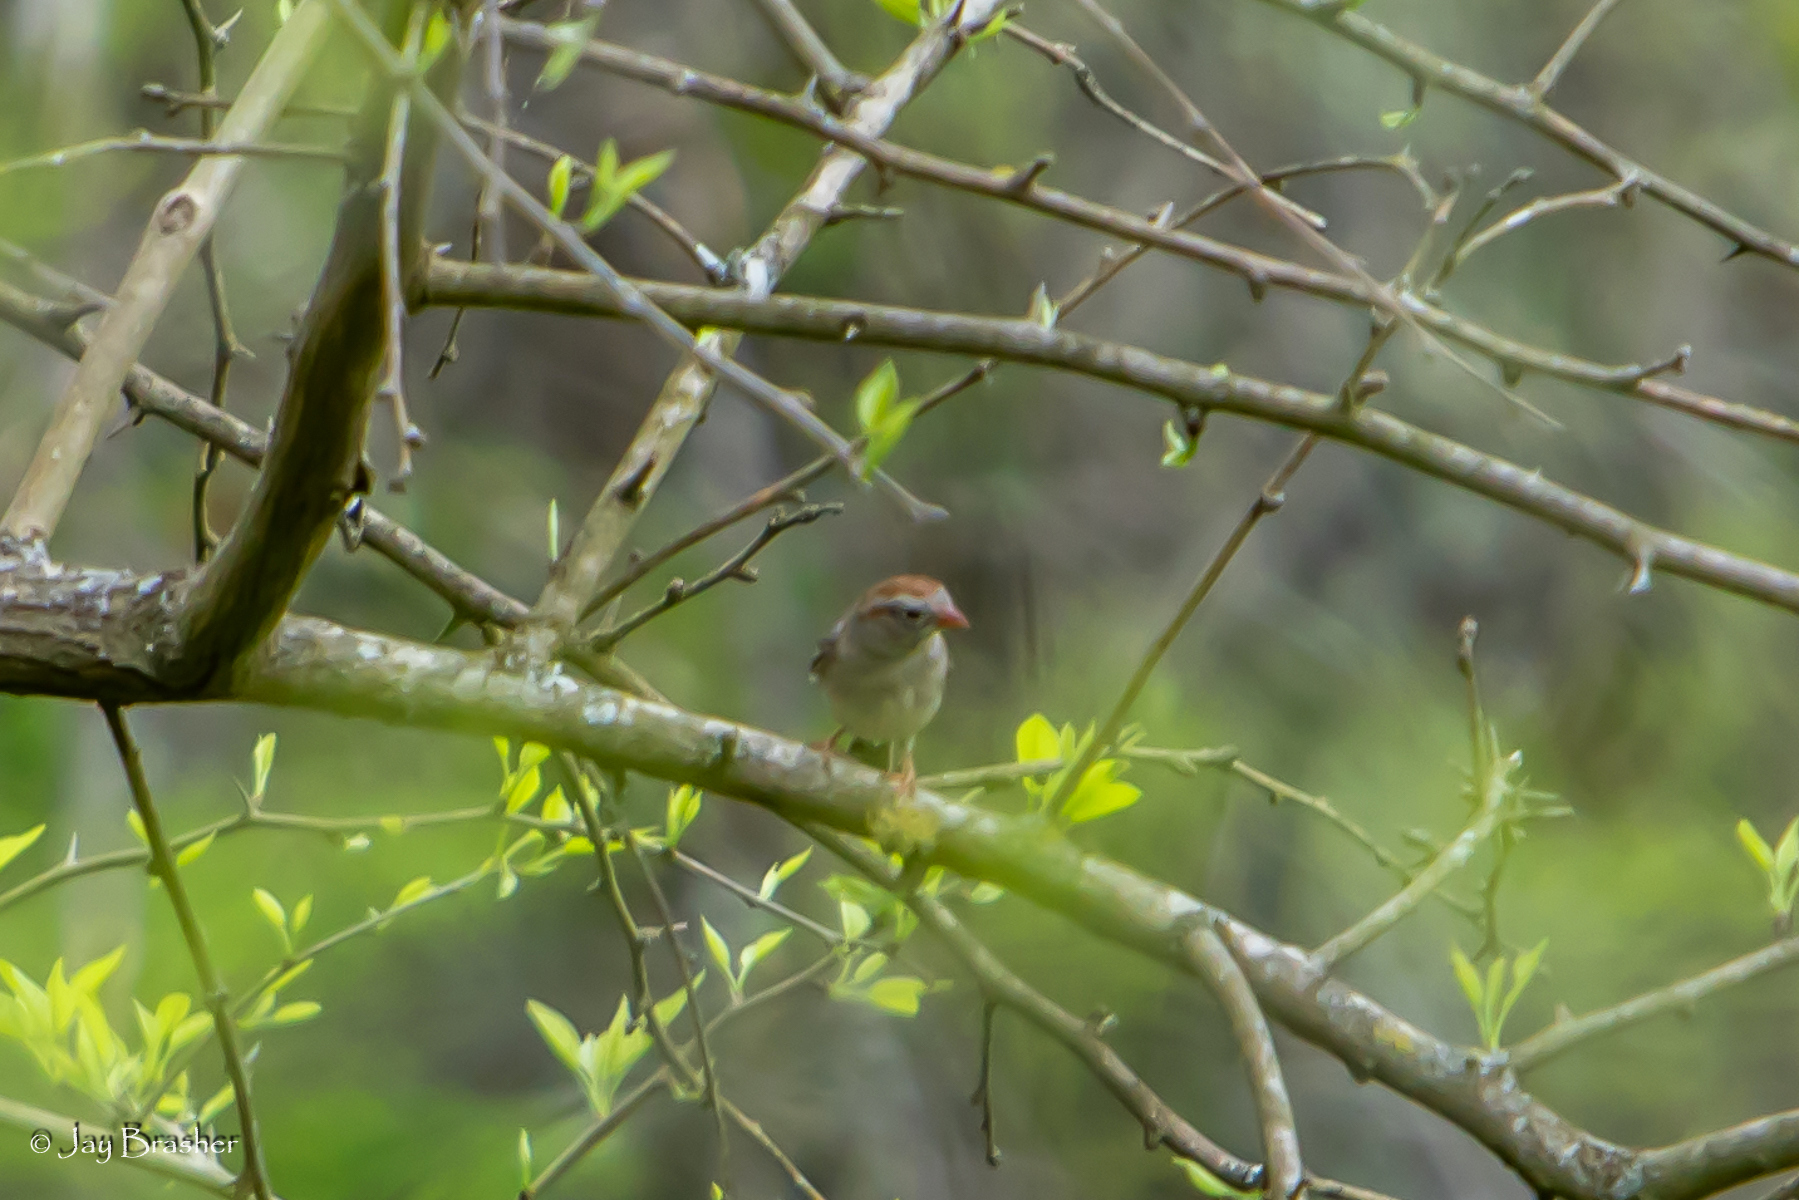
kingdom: Animalia
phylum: Chordata
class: Aves
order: Passeriformes
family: Passerellidae
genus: Spizella
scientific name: Spizella pusilla
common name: Field sparrow
